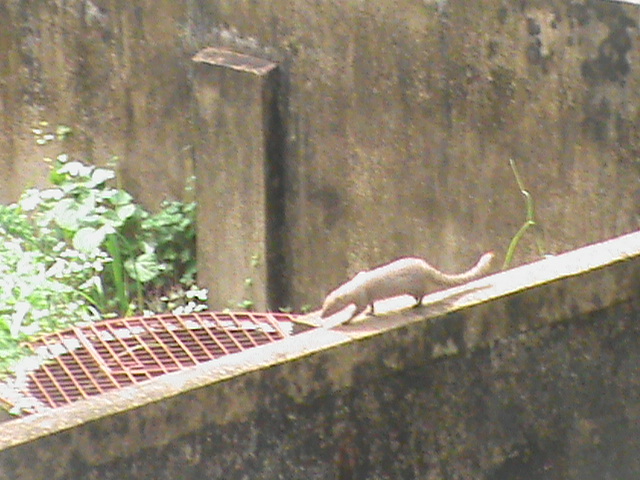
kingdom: Animalia
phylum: Chordata
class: Mammalia
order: Carnivora
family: Herpestidae
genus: Herpestes
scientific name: Herpestes edwardsi
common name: Indian gray mongoose
